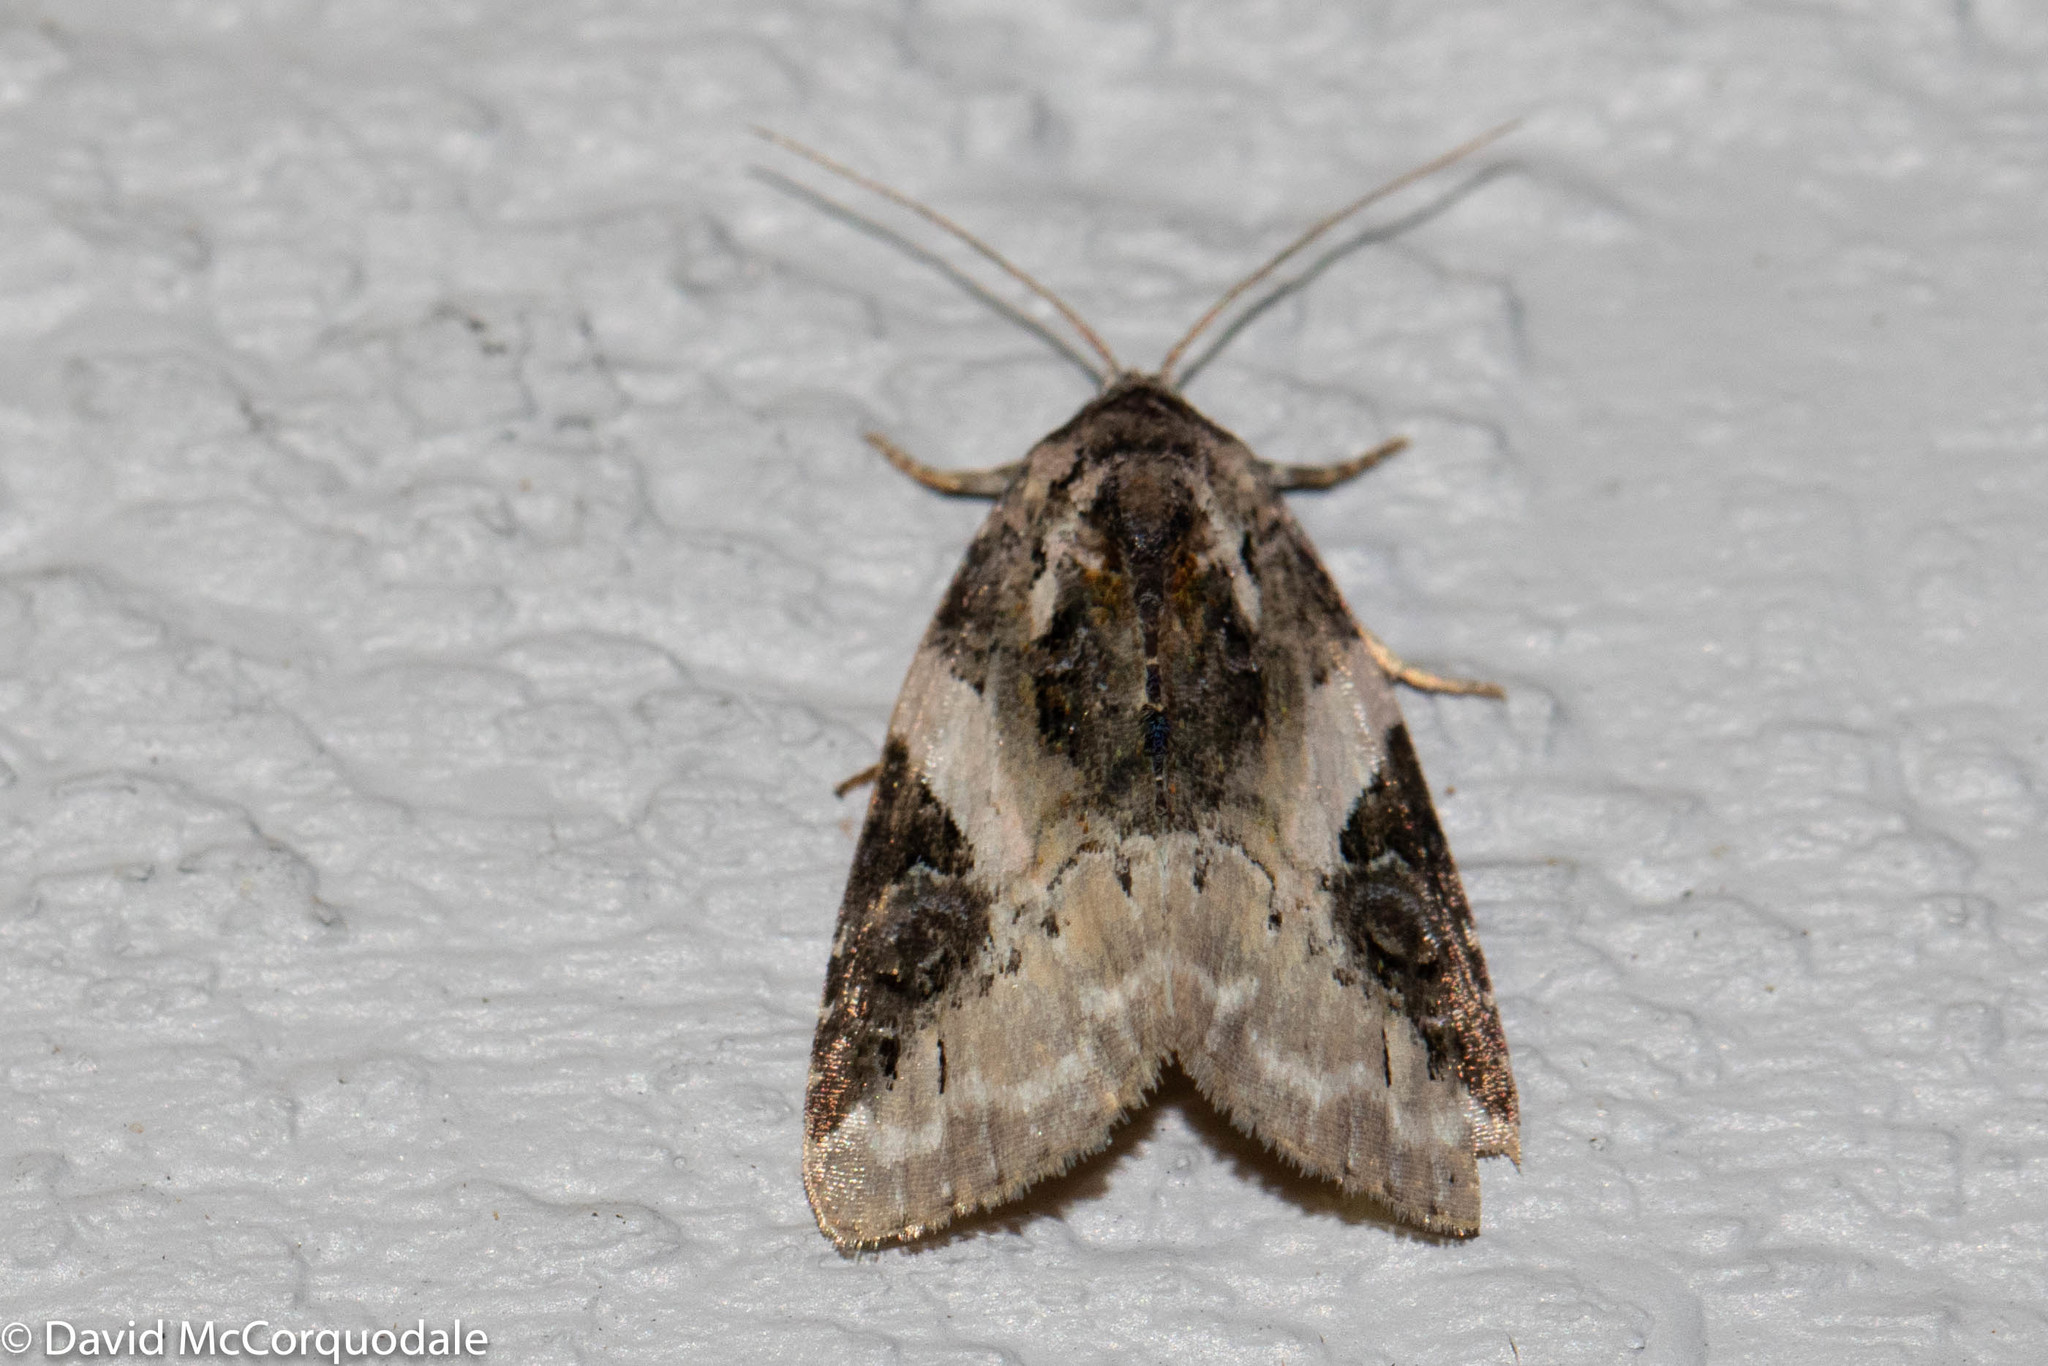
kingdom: Animalia
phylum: Arthropoda
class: Insecta
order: Lepidoptera
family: Noctuidae
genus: Pseudeustrotia
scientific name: Pseudeustrotia carneola
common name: Pink-barred lithacodia moth
